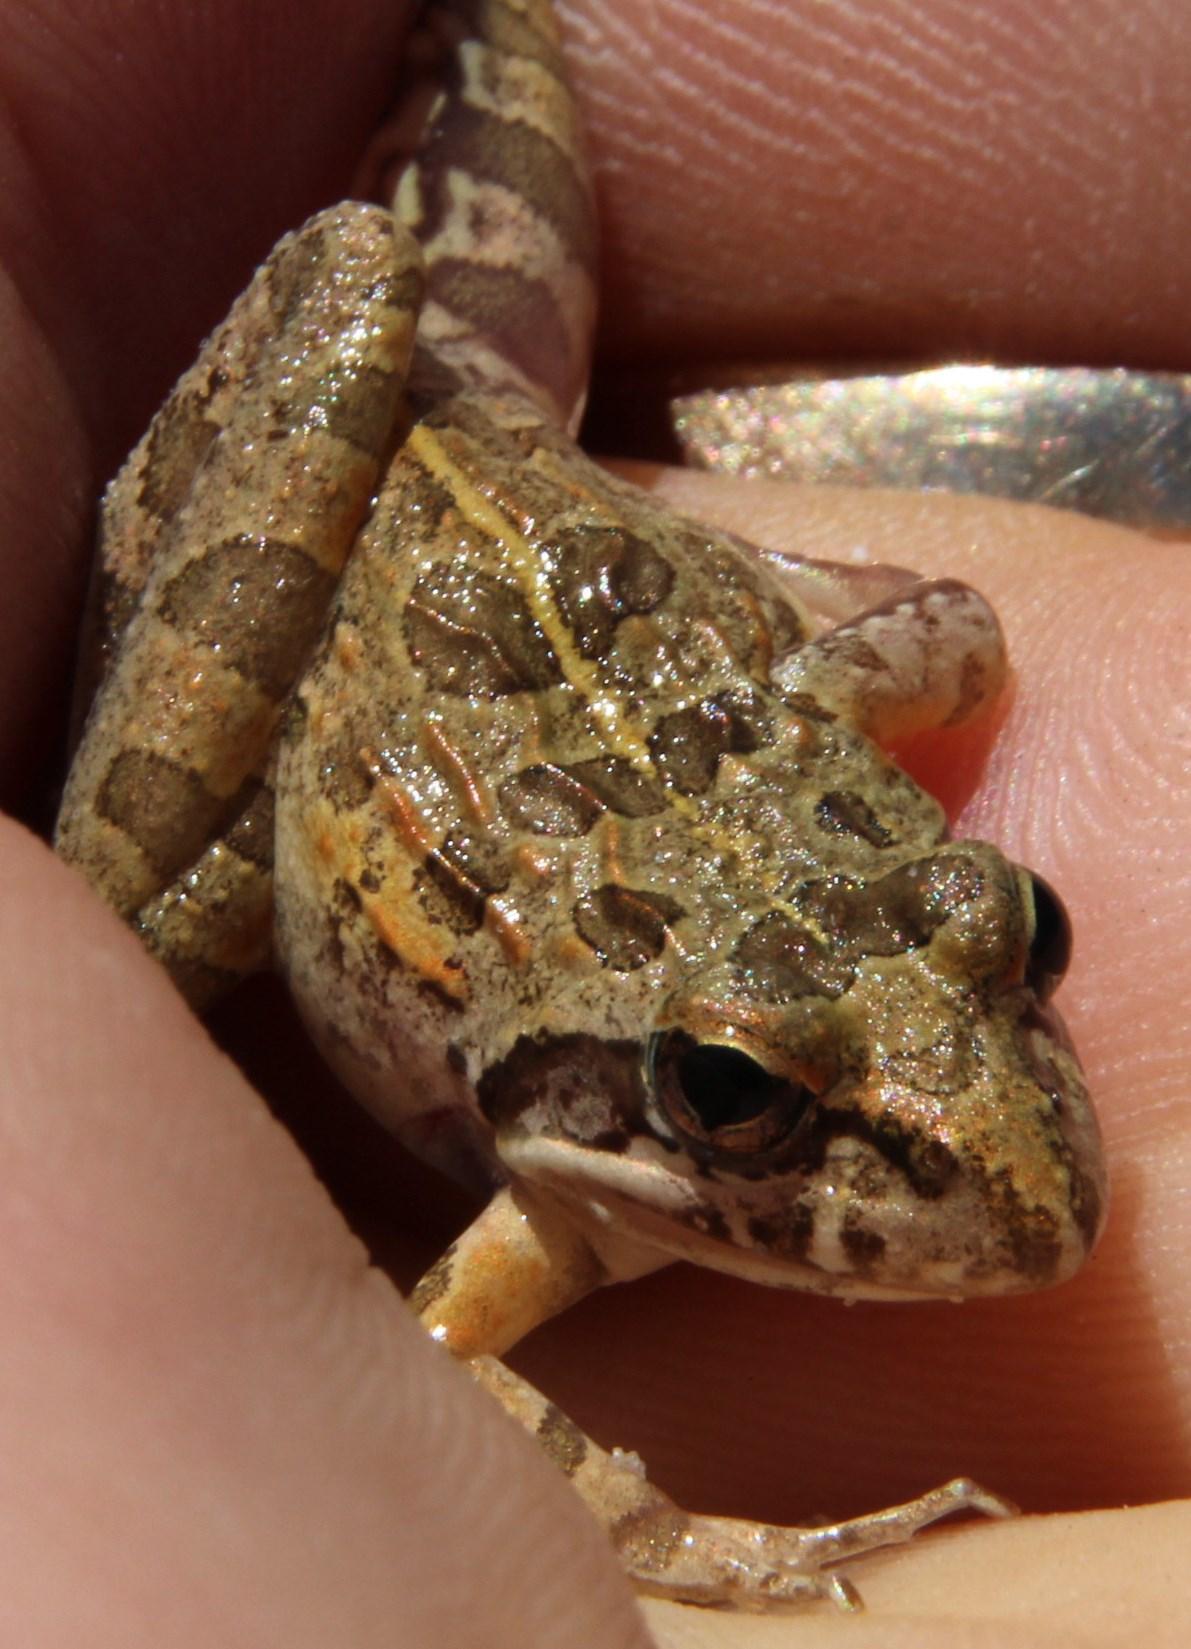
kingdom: Animalia
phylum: Chordata
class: Amphibia
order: Anura
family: Pyxicephalidae
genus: Strongylopus
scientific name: Strongylopus grayii
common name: Gray's stream frog
